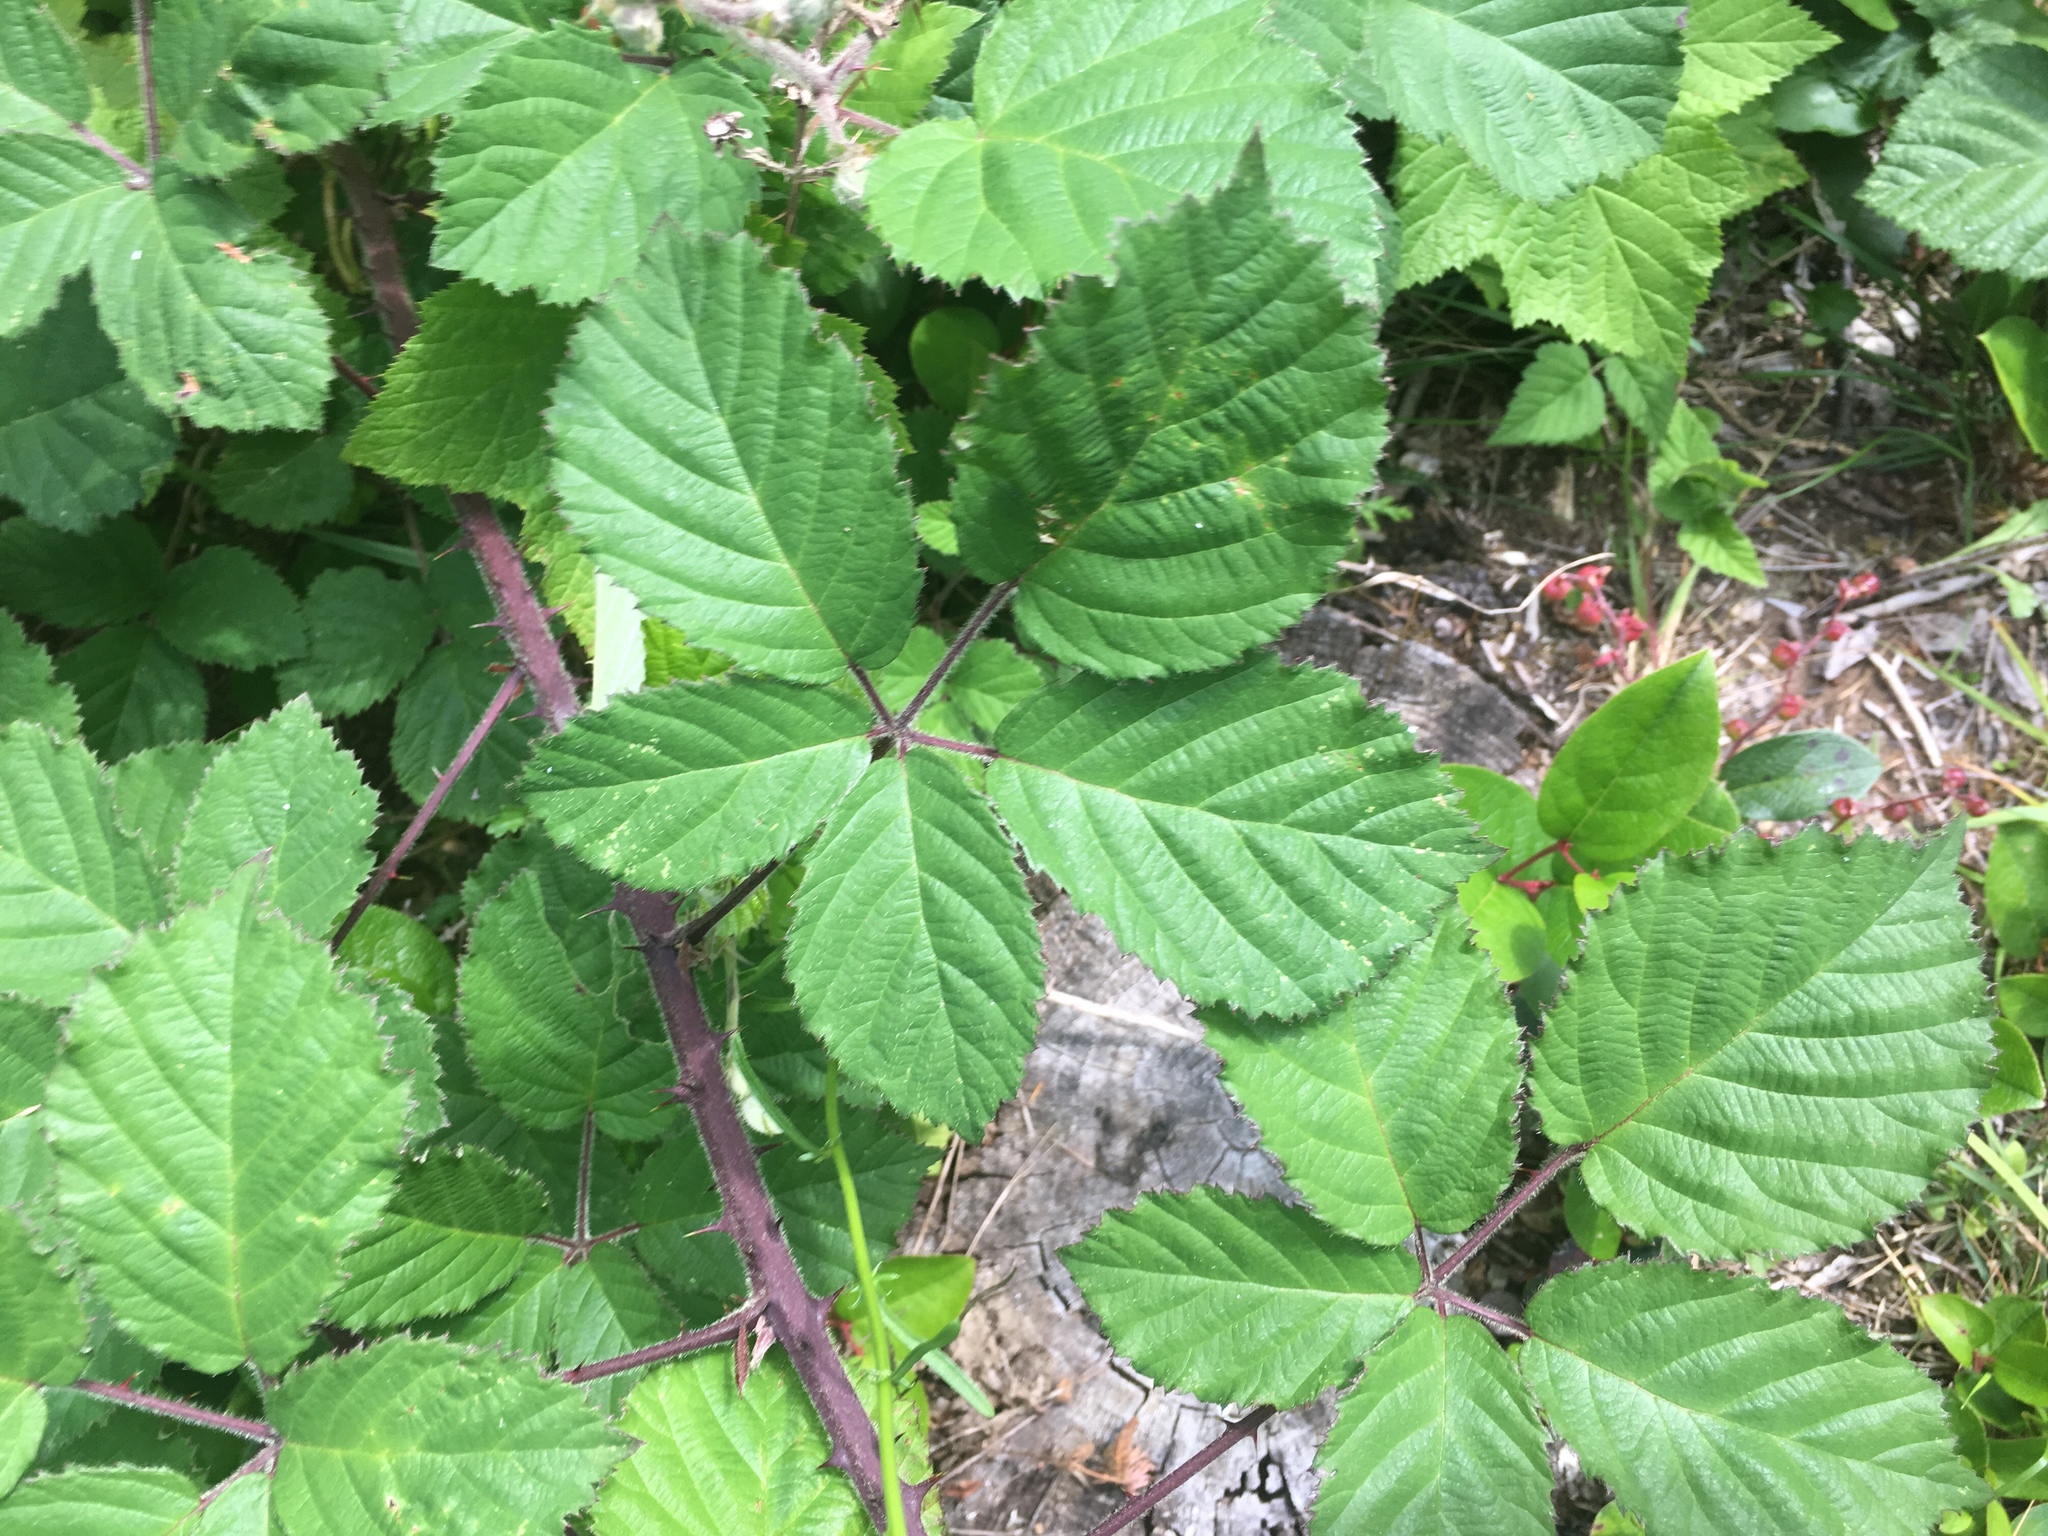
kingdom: Plantae
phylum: Tracheophyta
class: Magnoliopsida
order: Rosales
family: Rosaceae
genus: Rubus
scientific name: Rubus armeniacus
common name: Himalayan blackberry
